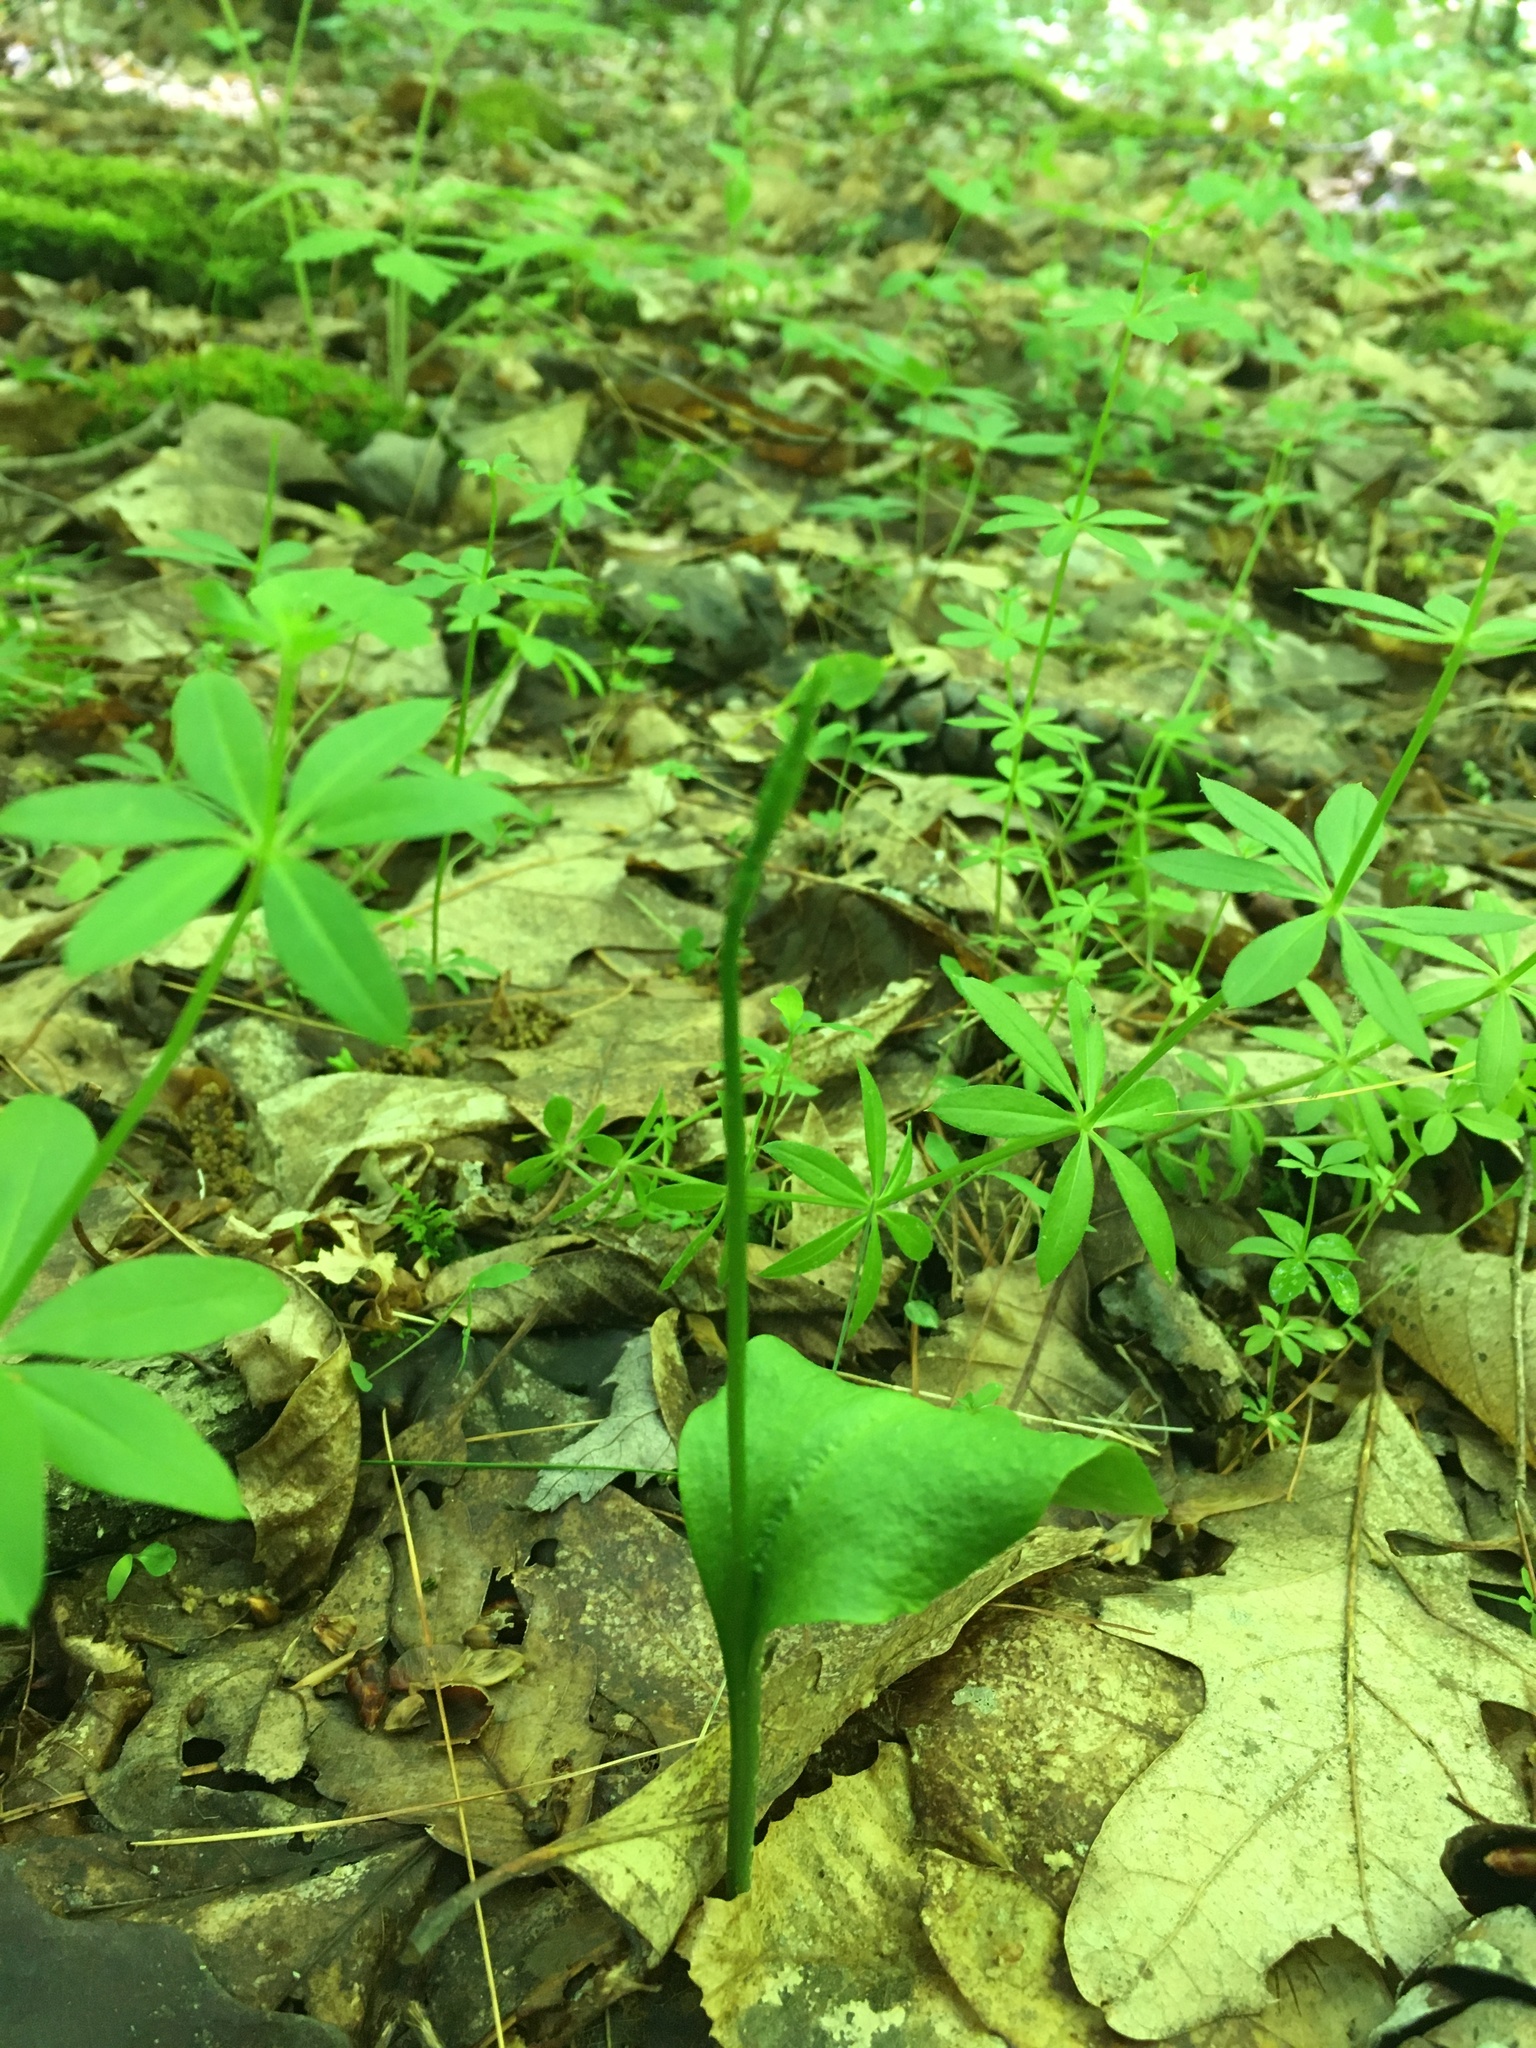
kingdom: Plantae
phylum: Tracheophyta
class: Polypodiopsida
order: Ophioglossales
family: Ophioglossaceae
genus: Ophioglossum
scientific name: Ophioglossum vulgatum
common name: Adder's-tongue
